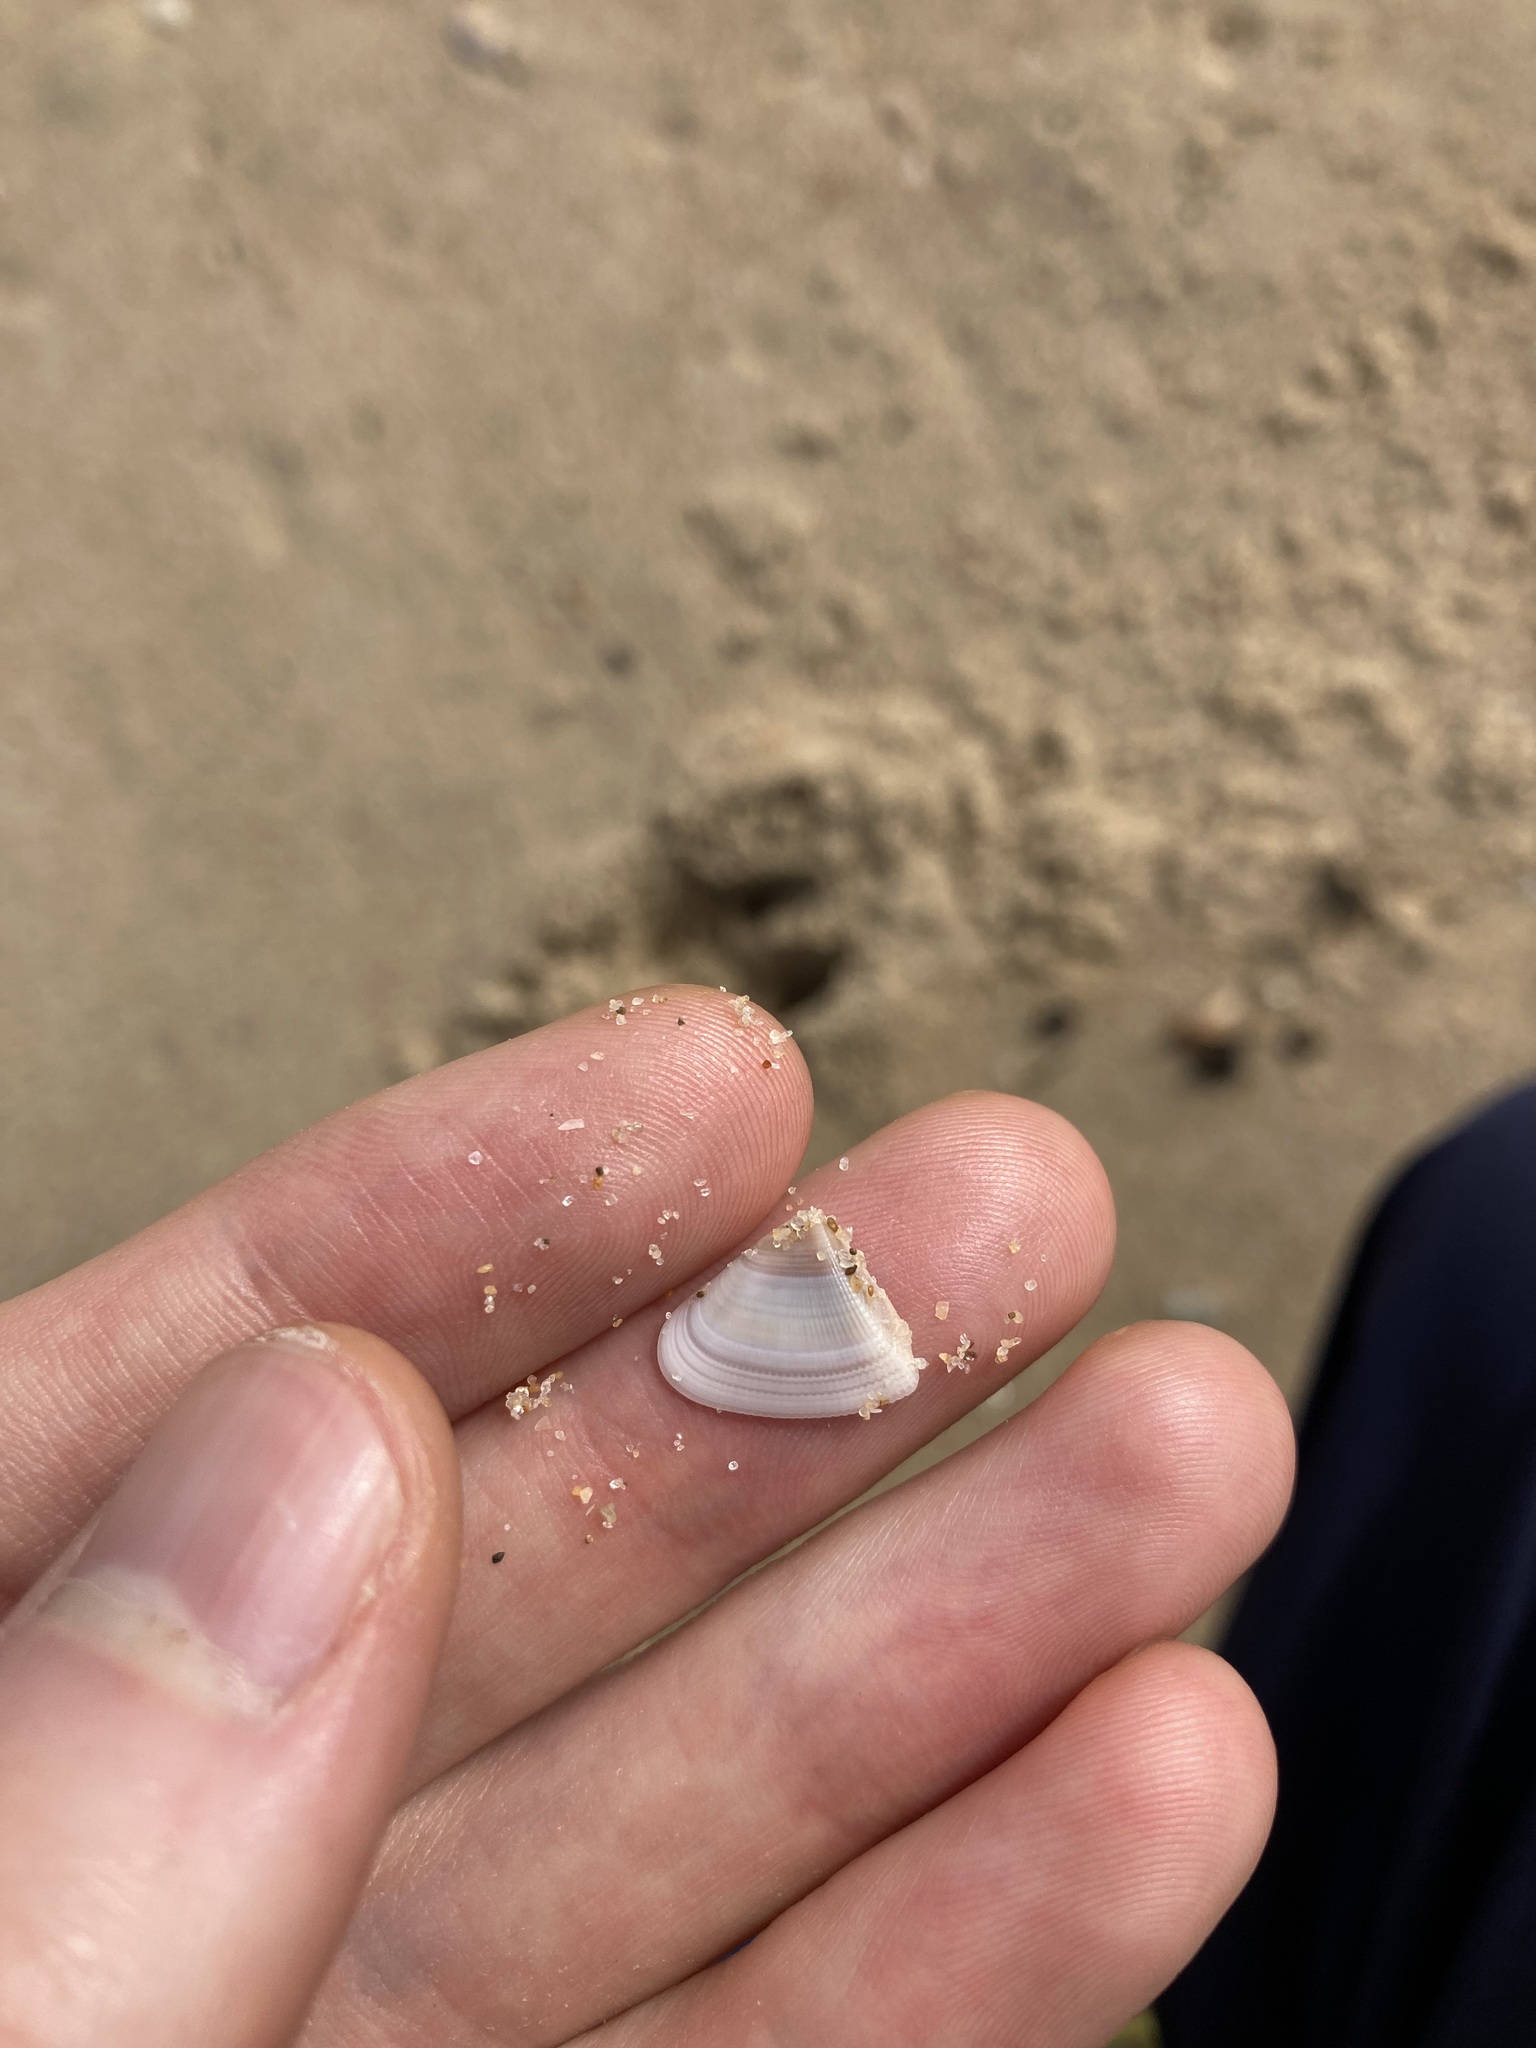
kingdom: Animalia
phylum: Mollusca
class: Bivalvia
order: Cardiida
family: Donacidae
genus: Donax
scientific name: Donax brazieri
